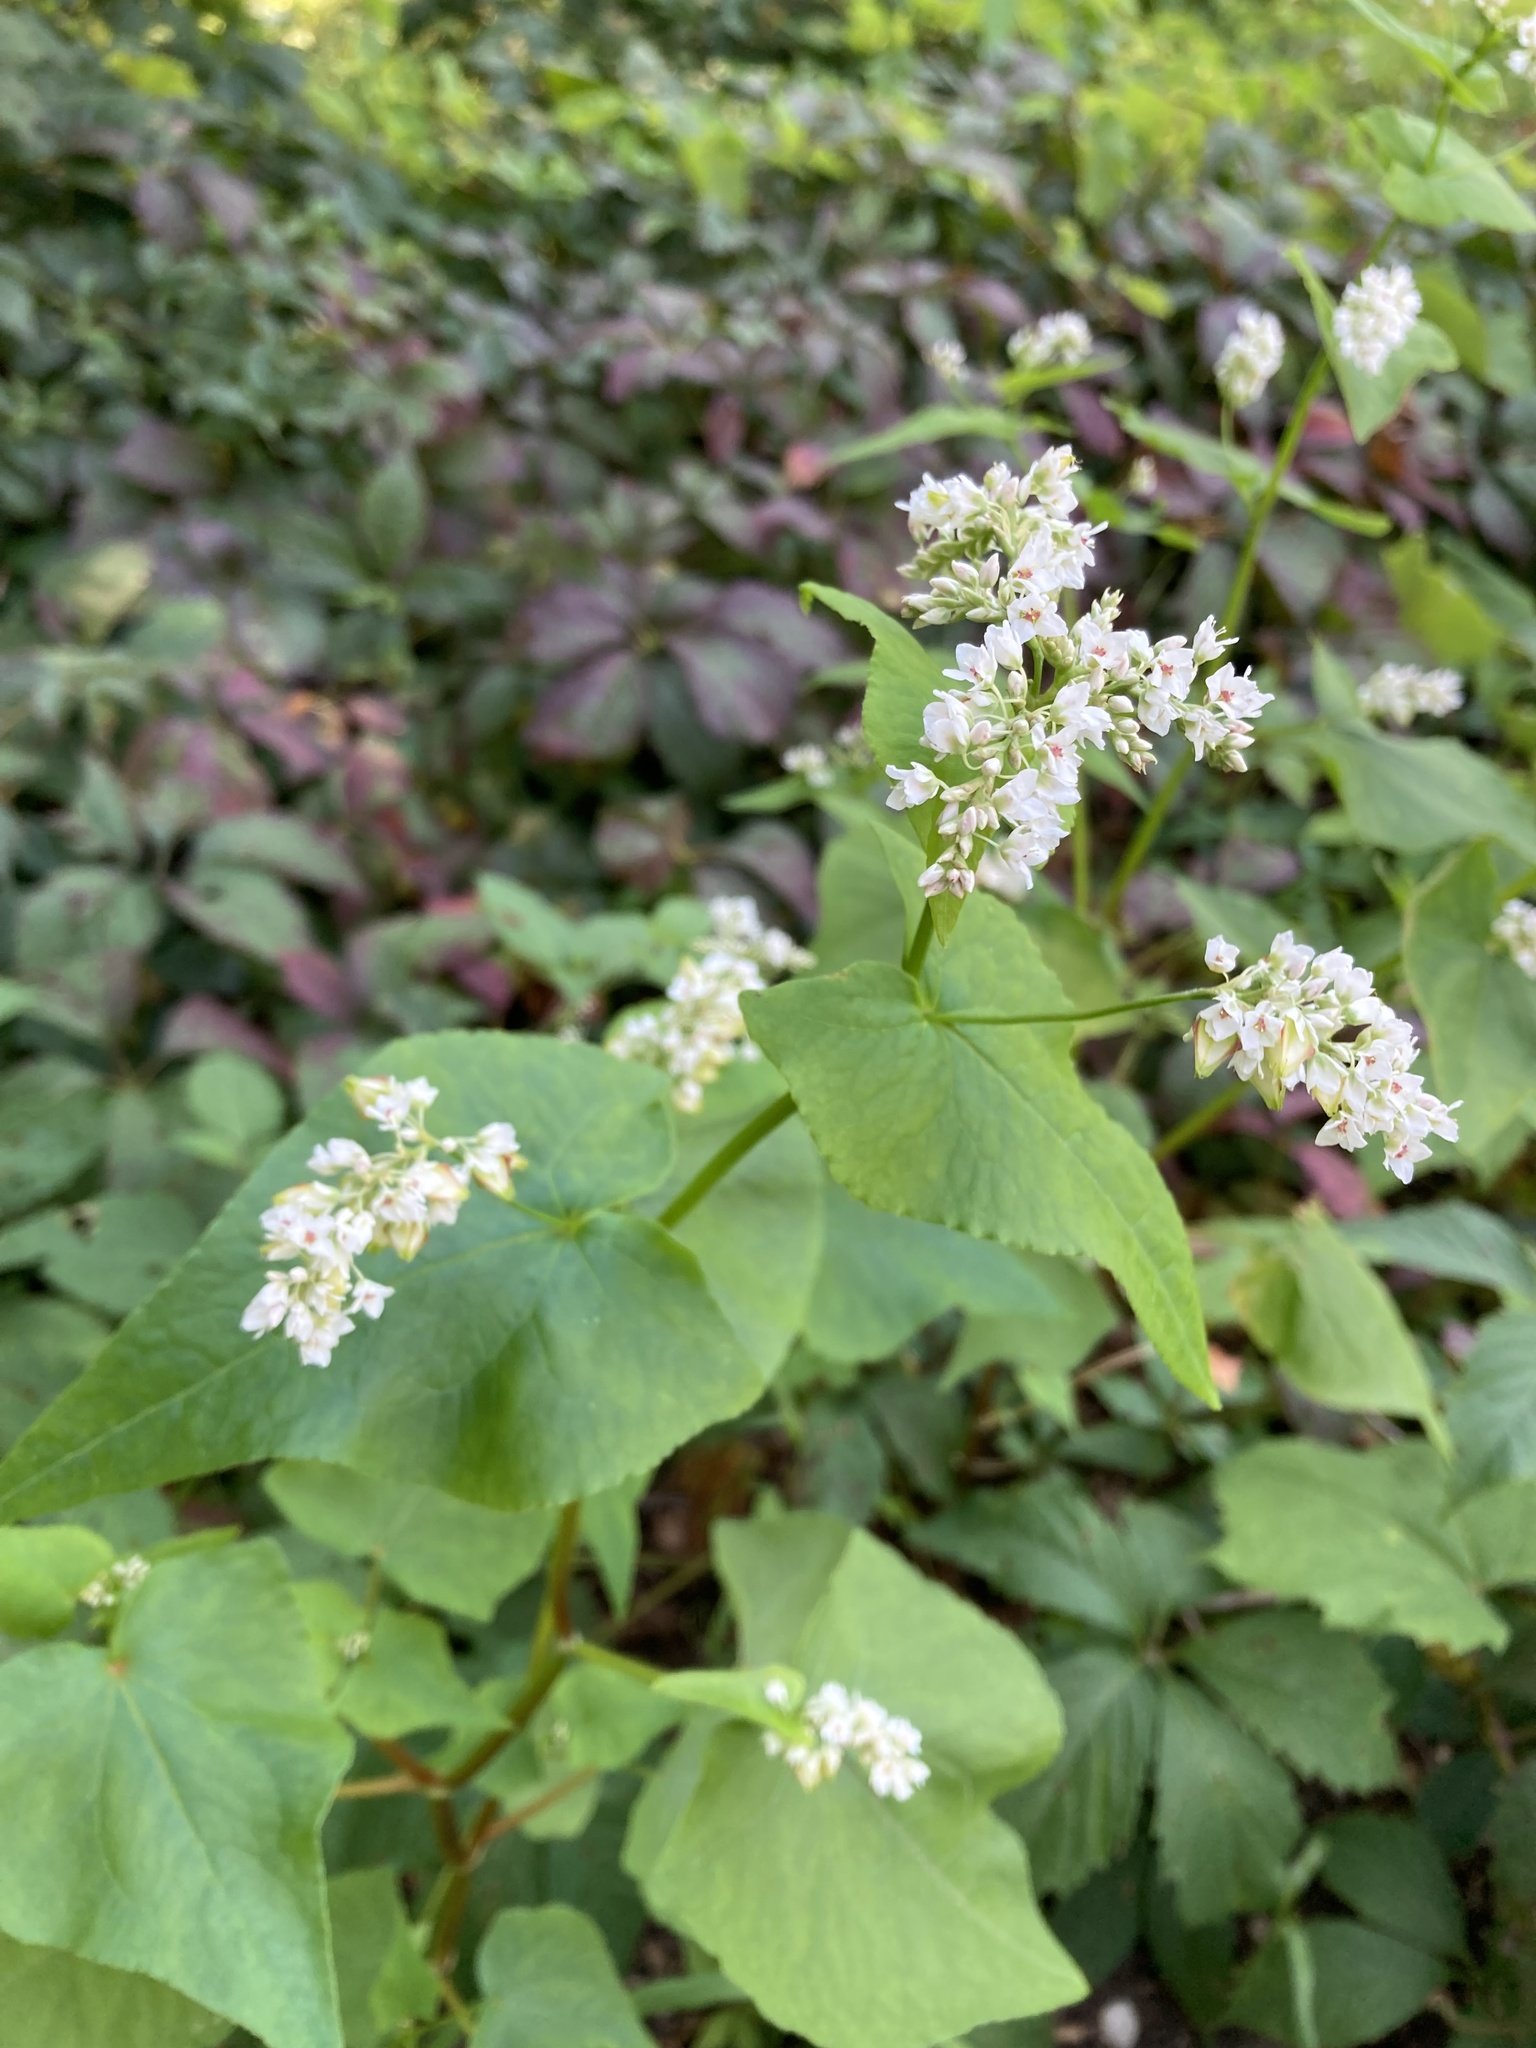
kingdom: Plantae
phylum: Tracheophyta
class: Magnoliopsida
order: Caryophyllales
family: Polygonaceae
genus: Fagopyrum
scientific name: Fagopyrum esculentum
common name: Buckwheat
